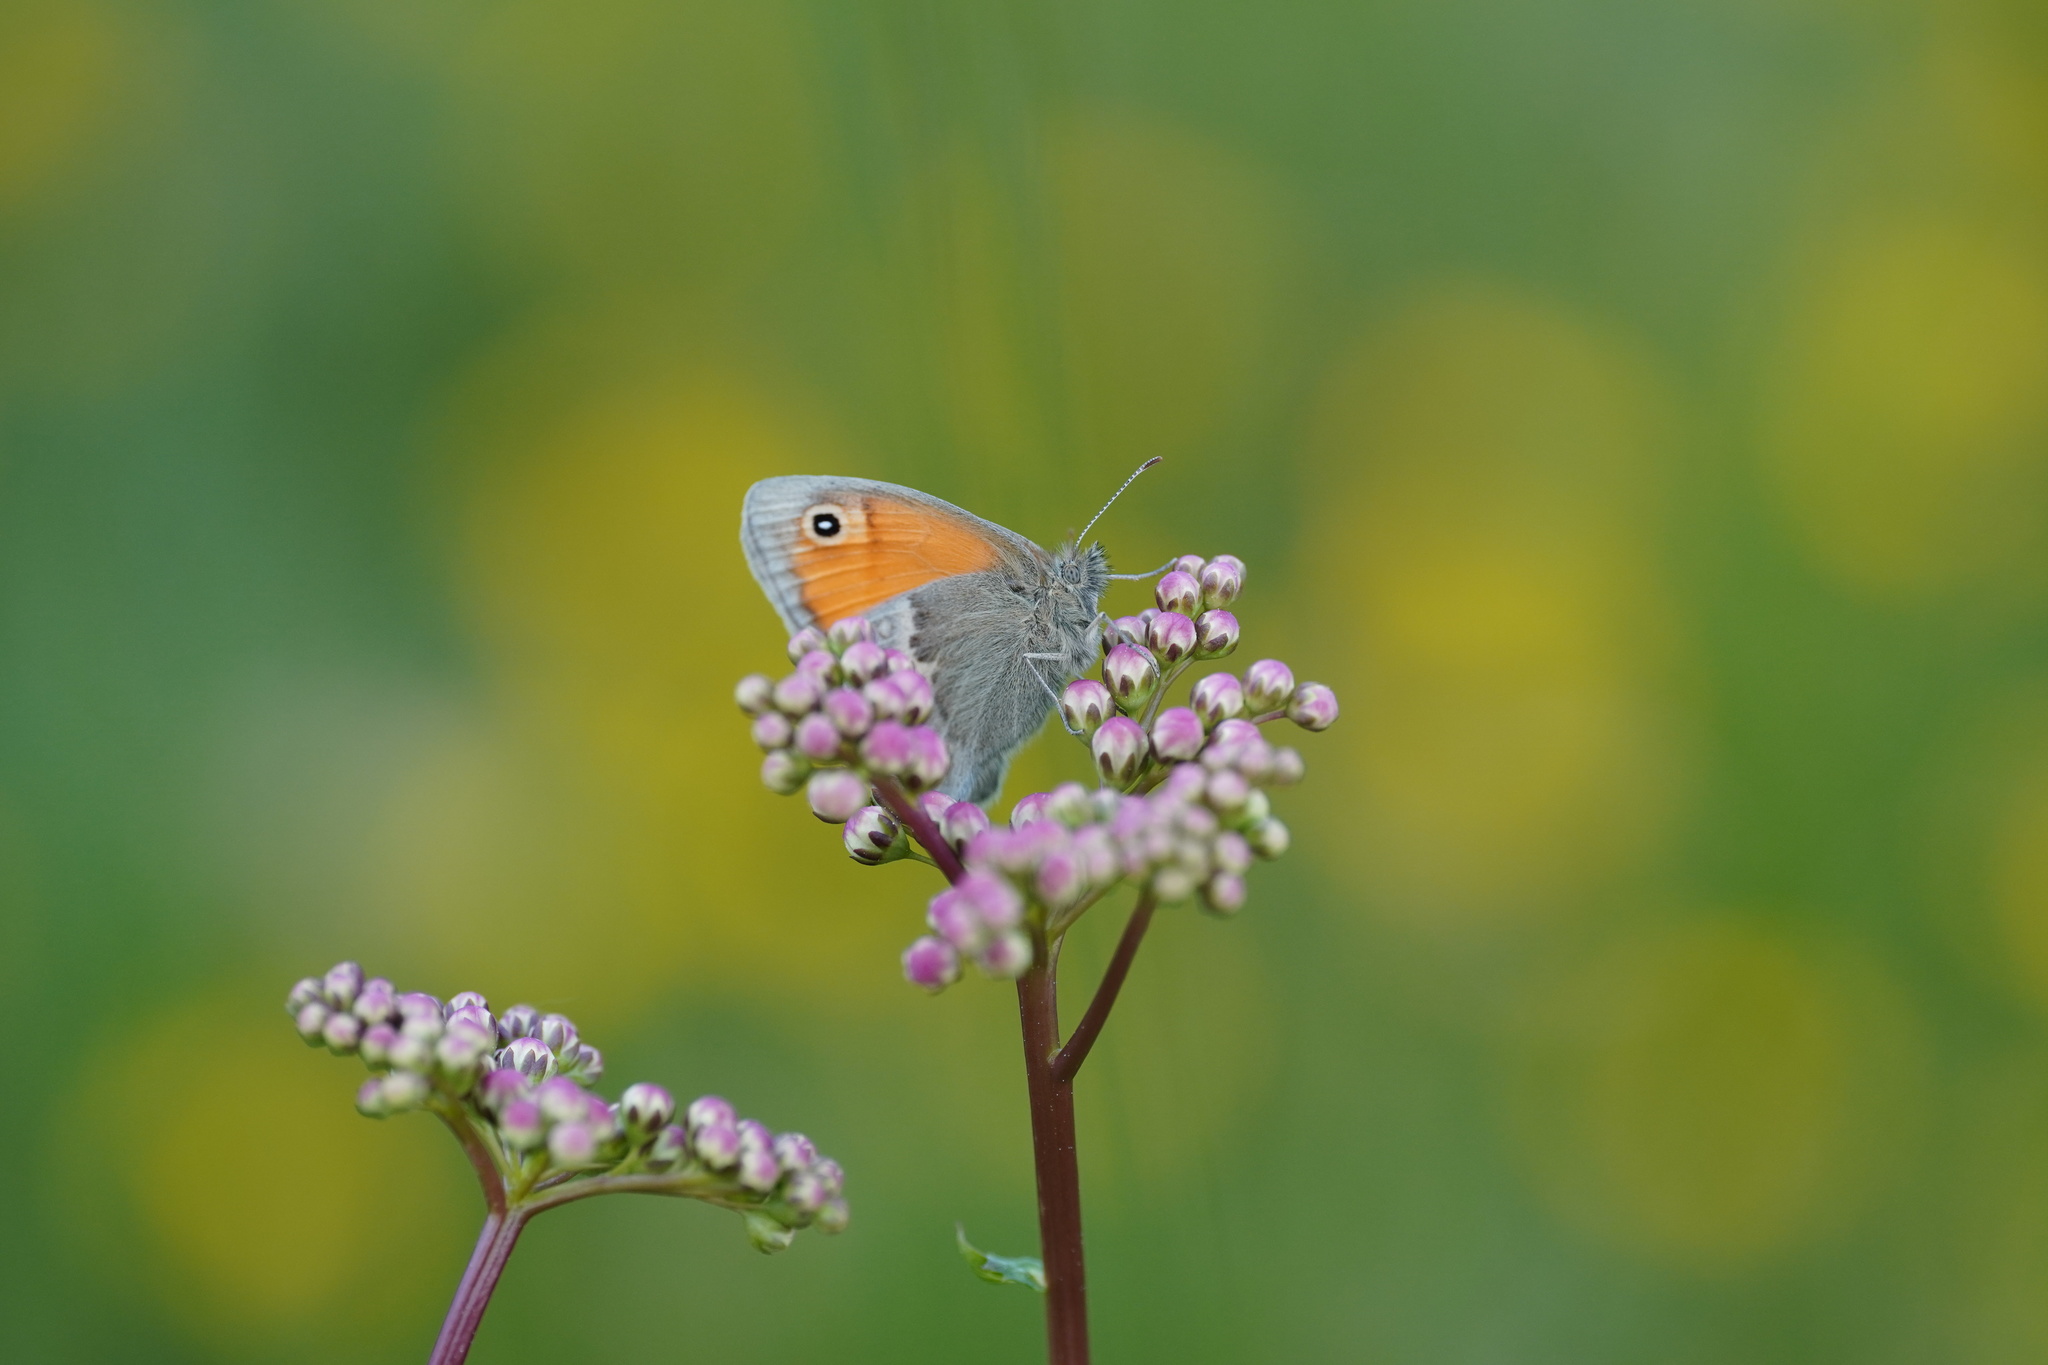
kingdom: Animalia
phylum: Arthropoda
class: Insecta
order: Lepidoptera
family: Nymphalidae
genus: Coenonympha
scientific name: Coenonympha pamphilus
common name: Small heath
